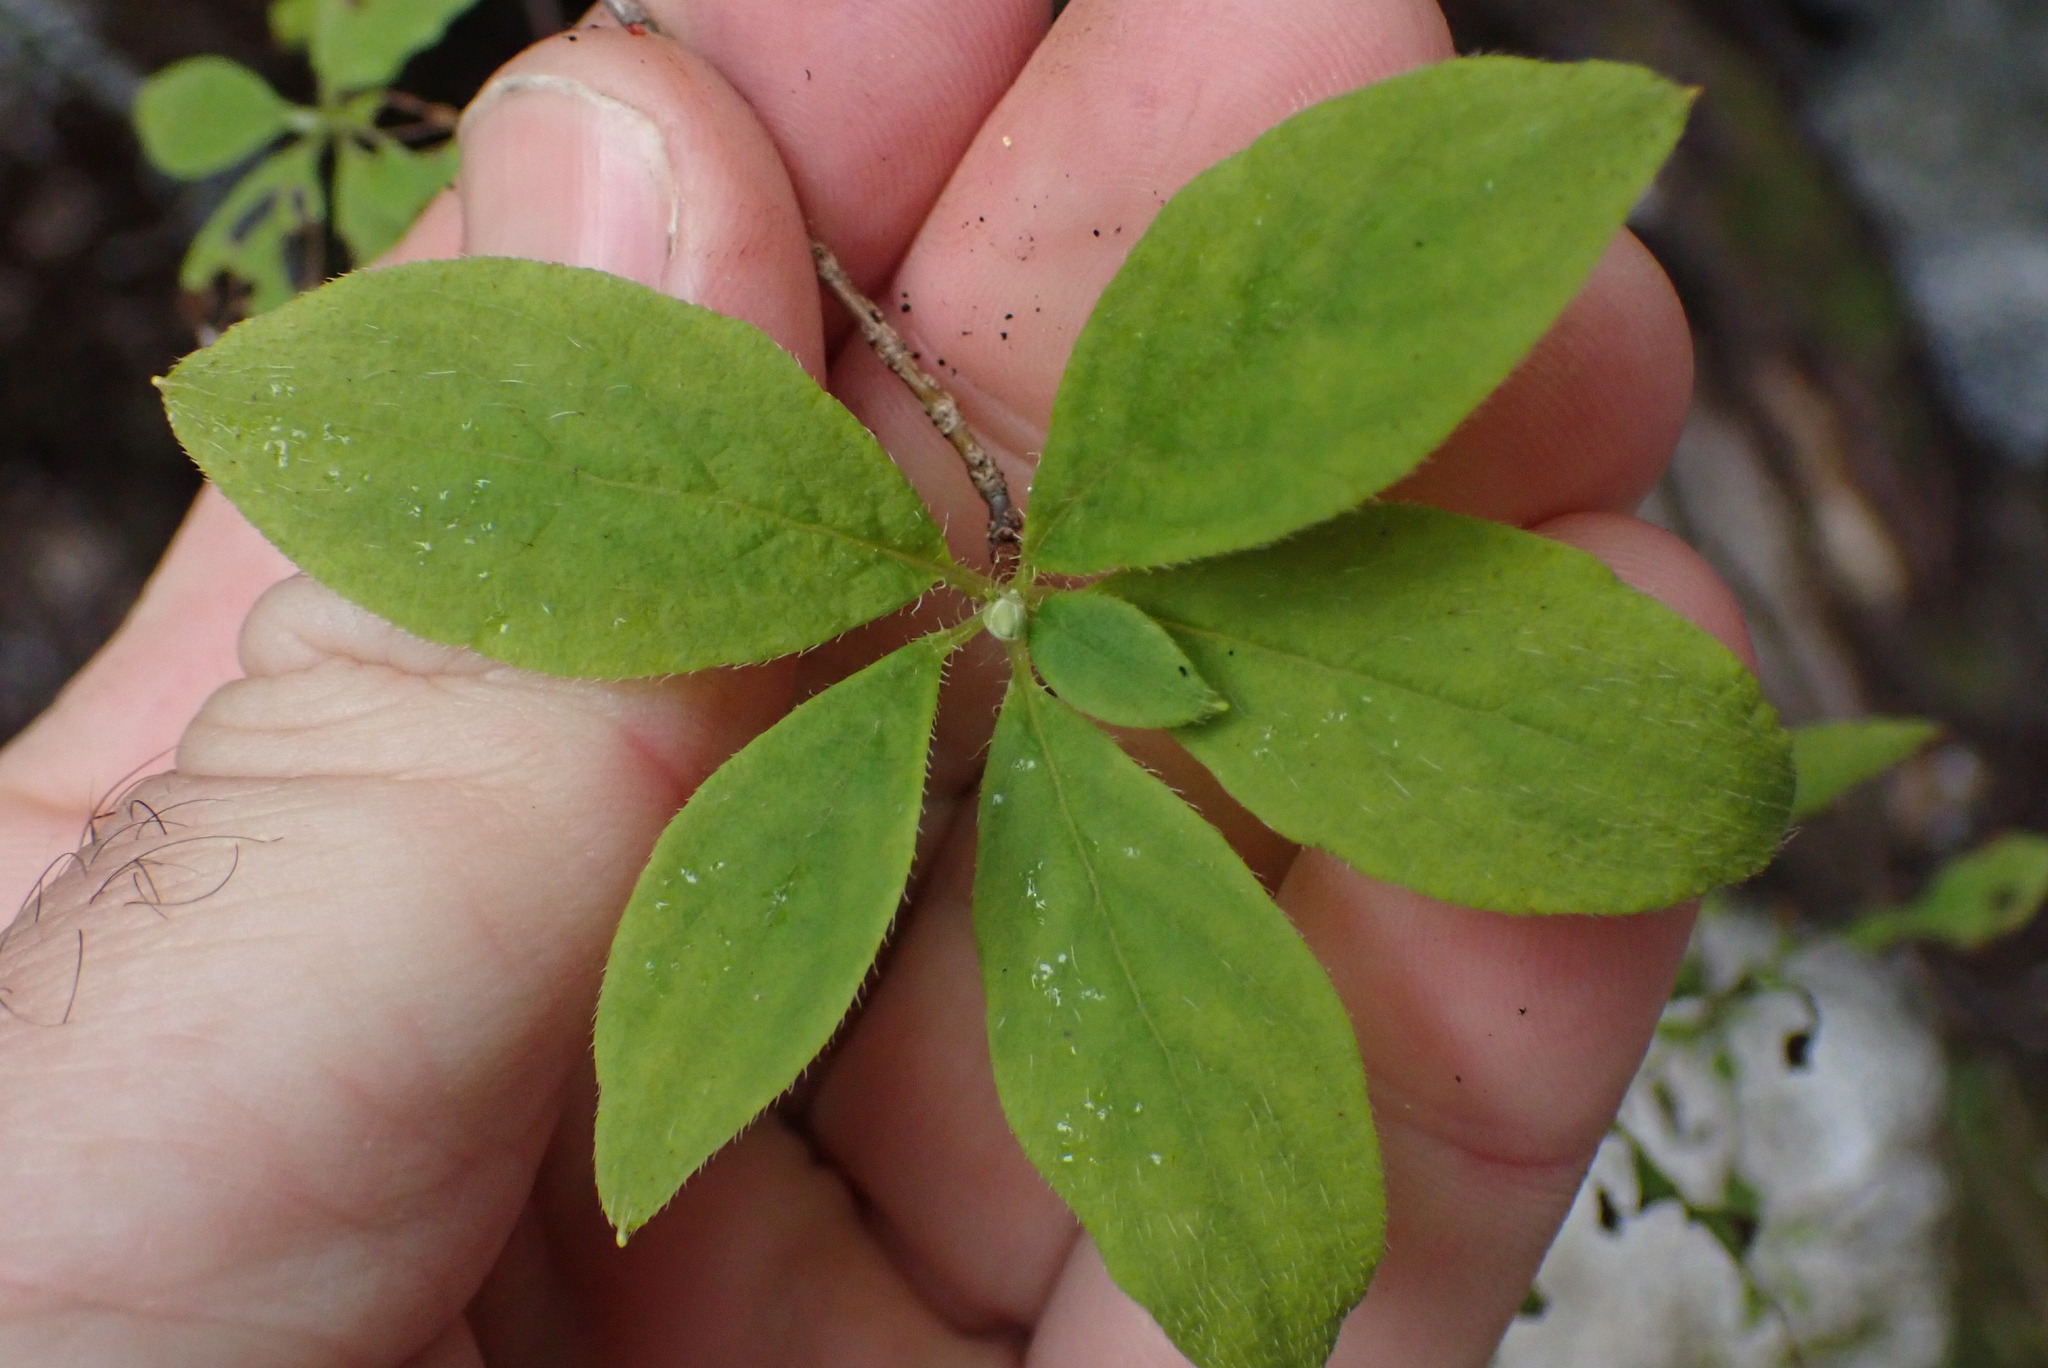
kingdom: Plantae
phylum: Tracheophyta
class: Magnoliopsida
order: Ericales
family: Ericaceae
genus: Rhododendron
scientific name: Rhododendron menziesii
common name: Pacific menziesia
